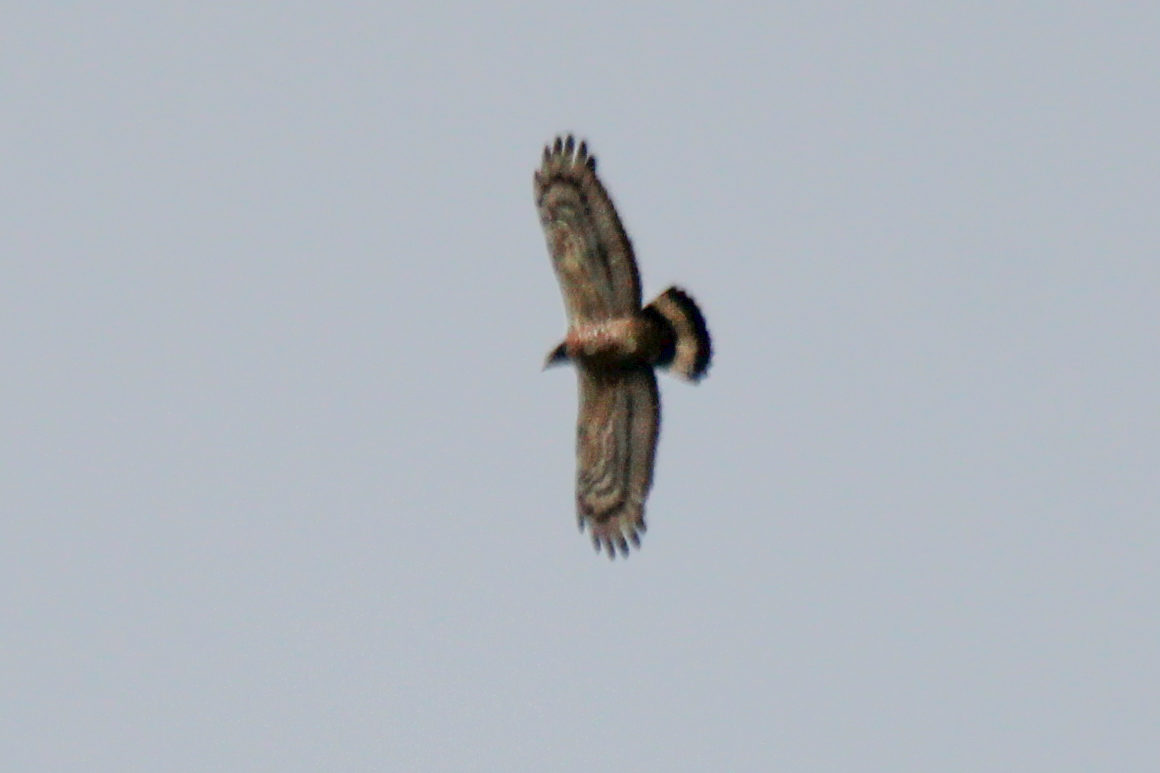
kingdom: Animalia
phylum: Chordata
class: Aves
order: Accipitriformes
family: Accipitridae
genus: Pernis
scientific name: Pernis ptilorhynchus
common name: Crested honey buzzard
